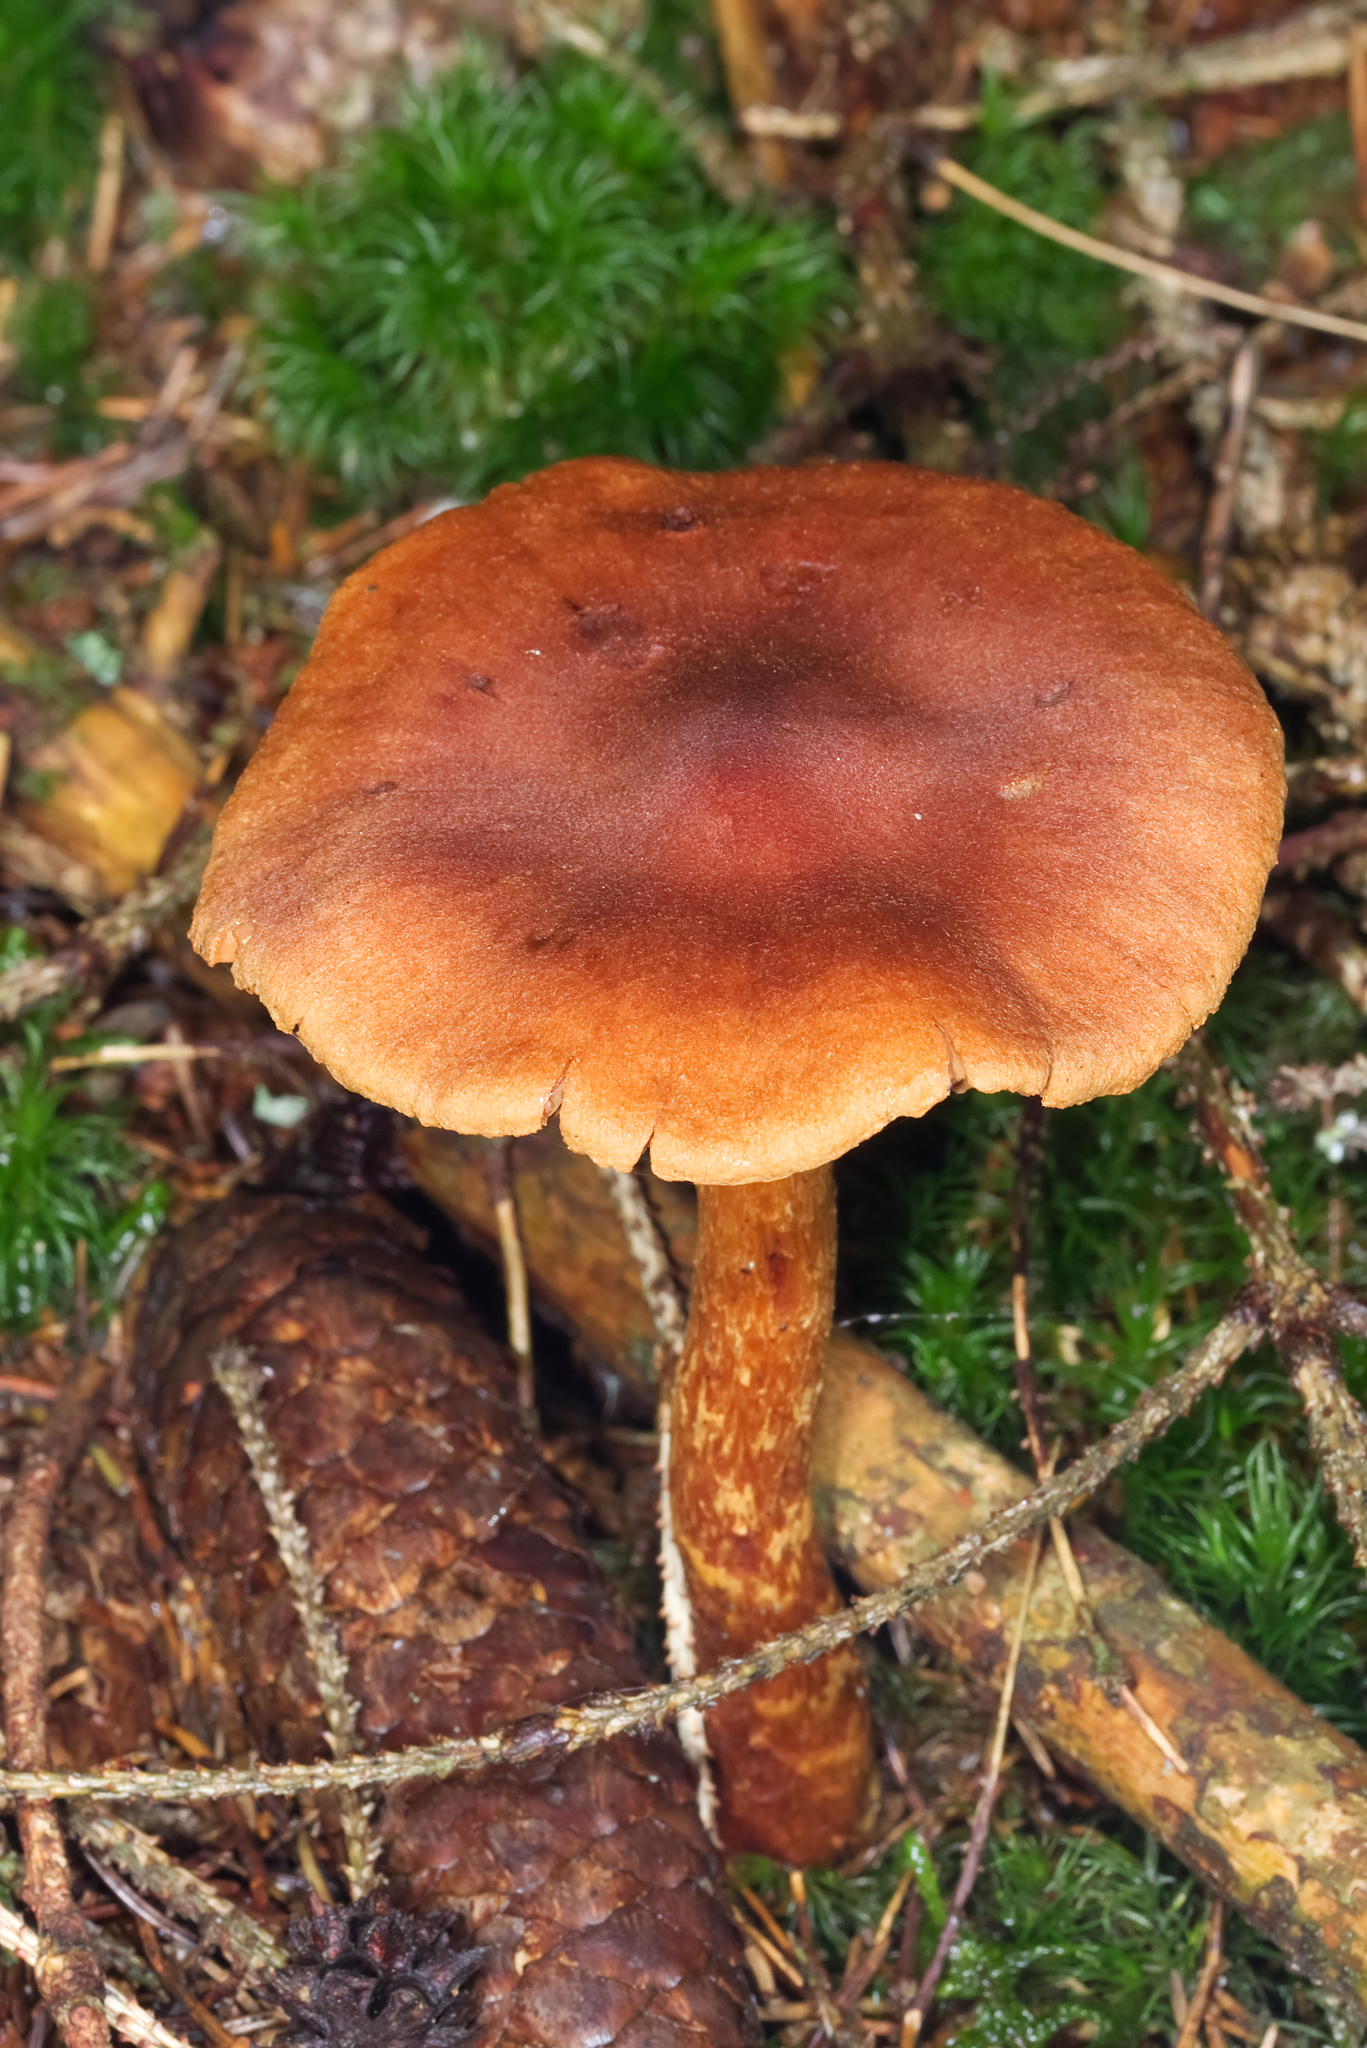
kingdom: Fungi
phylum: Basidiomycota
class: Agaricomycetes
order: Agaricales
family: Cortinariaceae
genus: Cortinarius
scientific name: Cortinarius rubellus
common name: Deadly webcap
